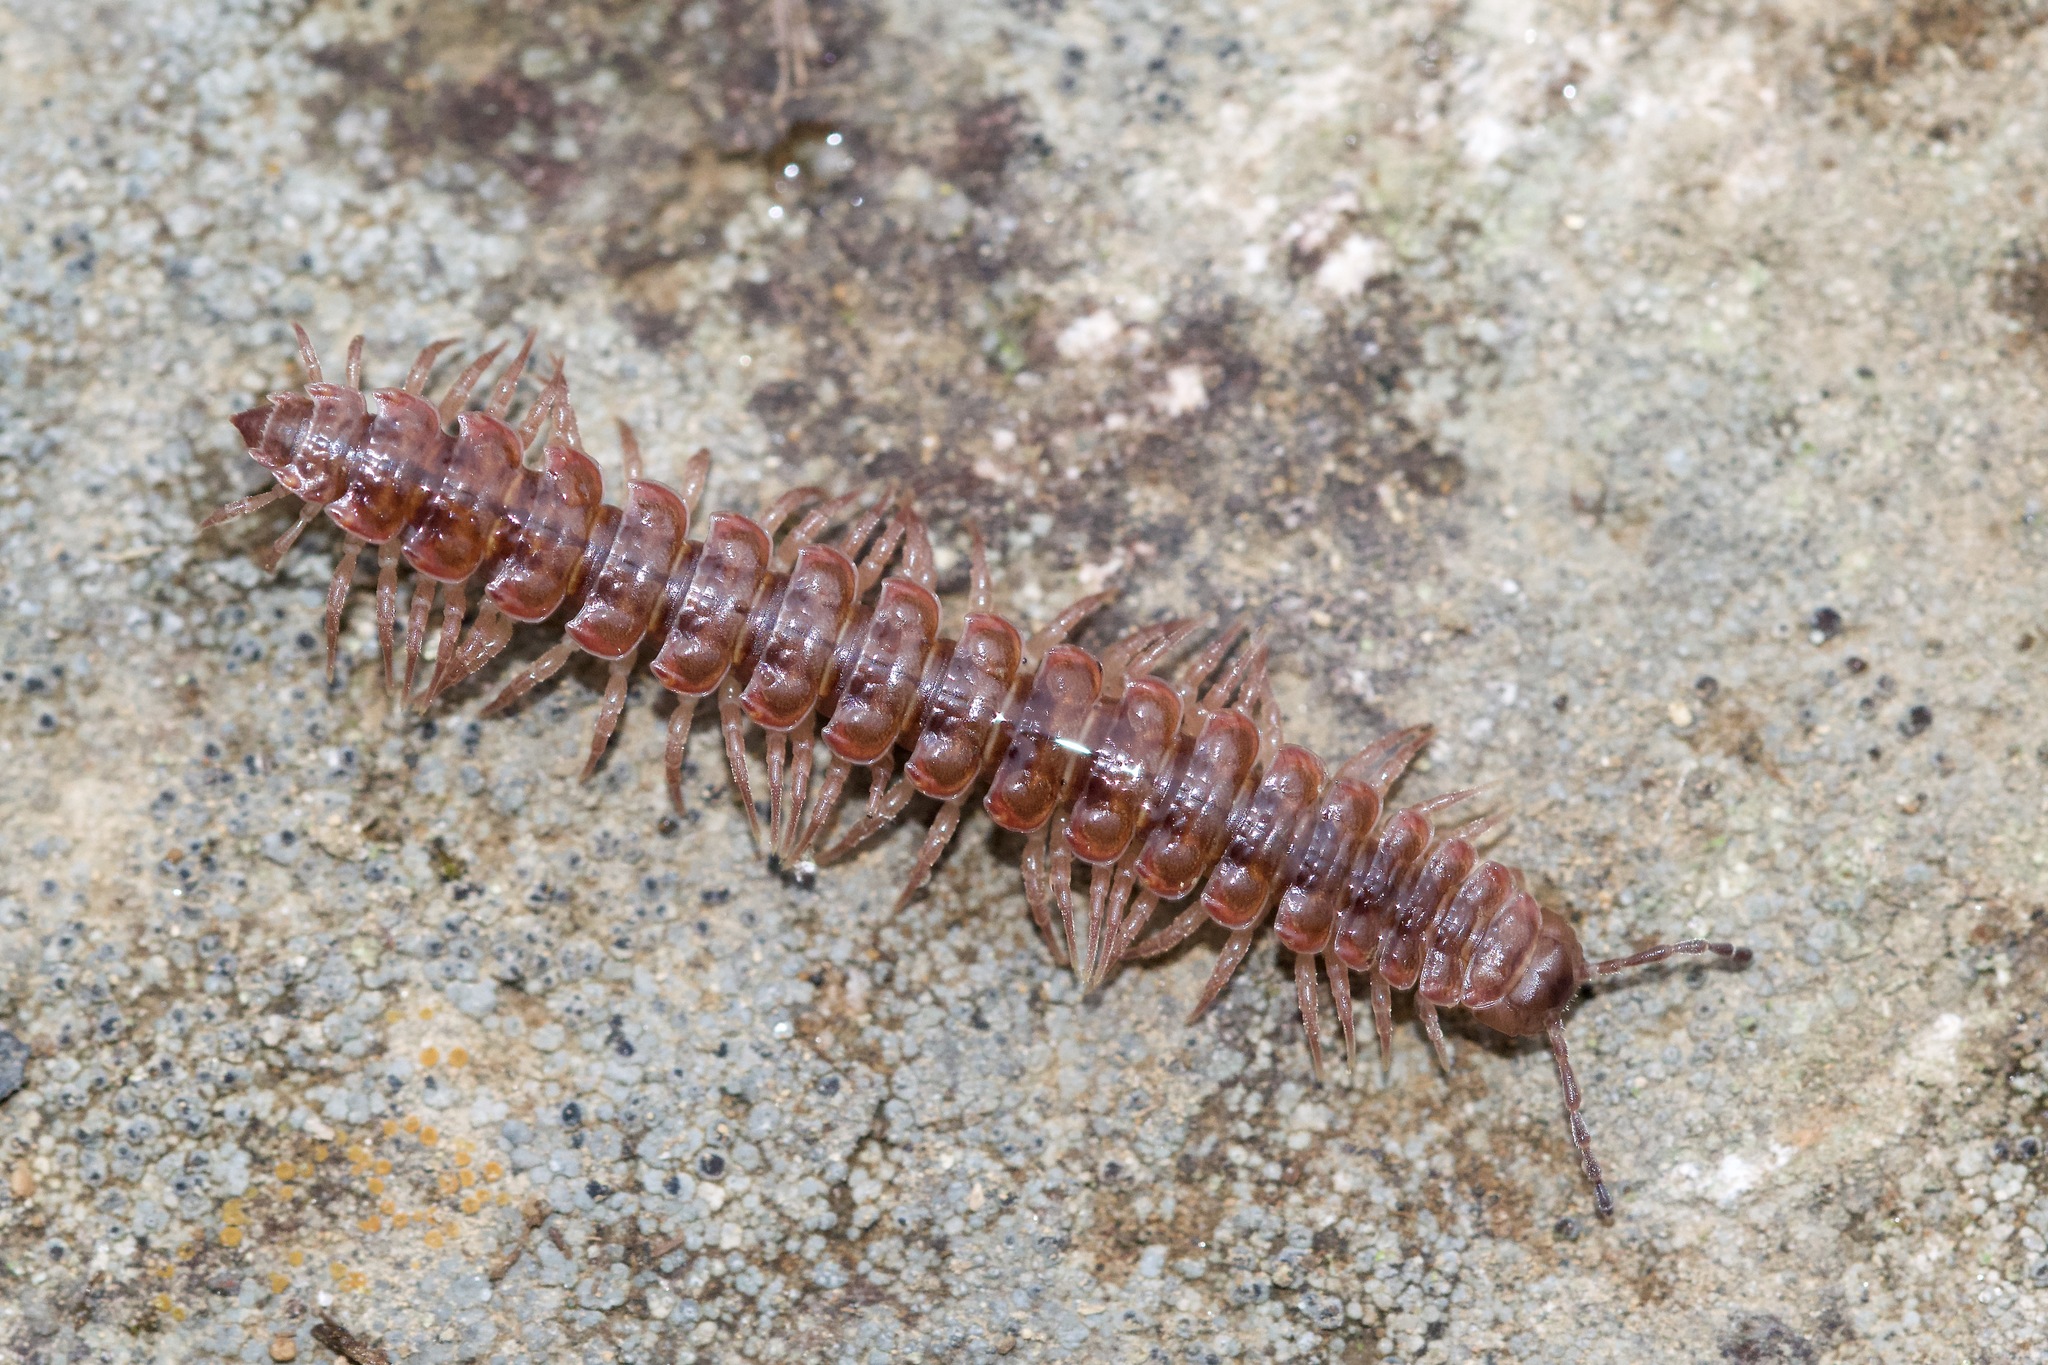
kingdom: Animalia
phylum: Arthropoda
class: Diplopoda
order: Polydesmida
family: Polydesmidae
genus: Pseudopolydesmus
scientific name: Pseudopolydesmus serratus
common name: Common pink flat-back millipede
